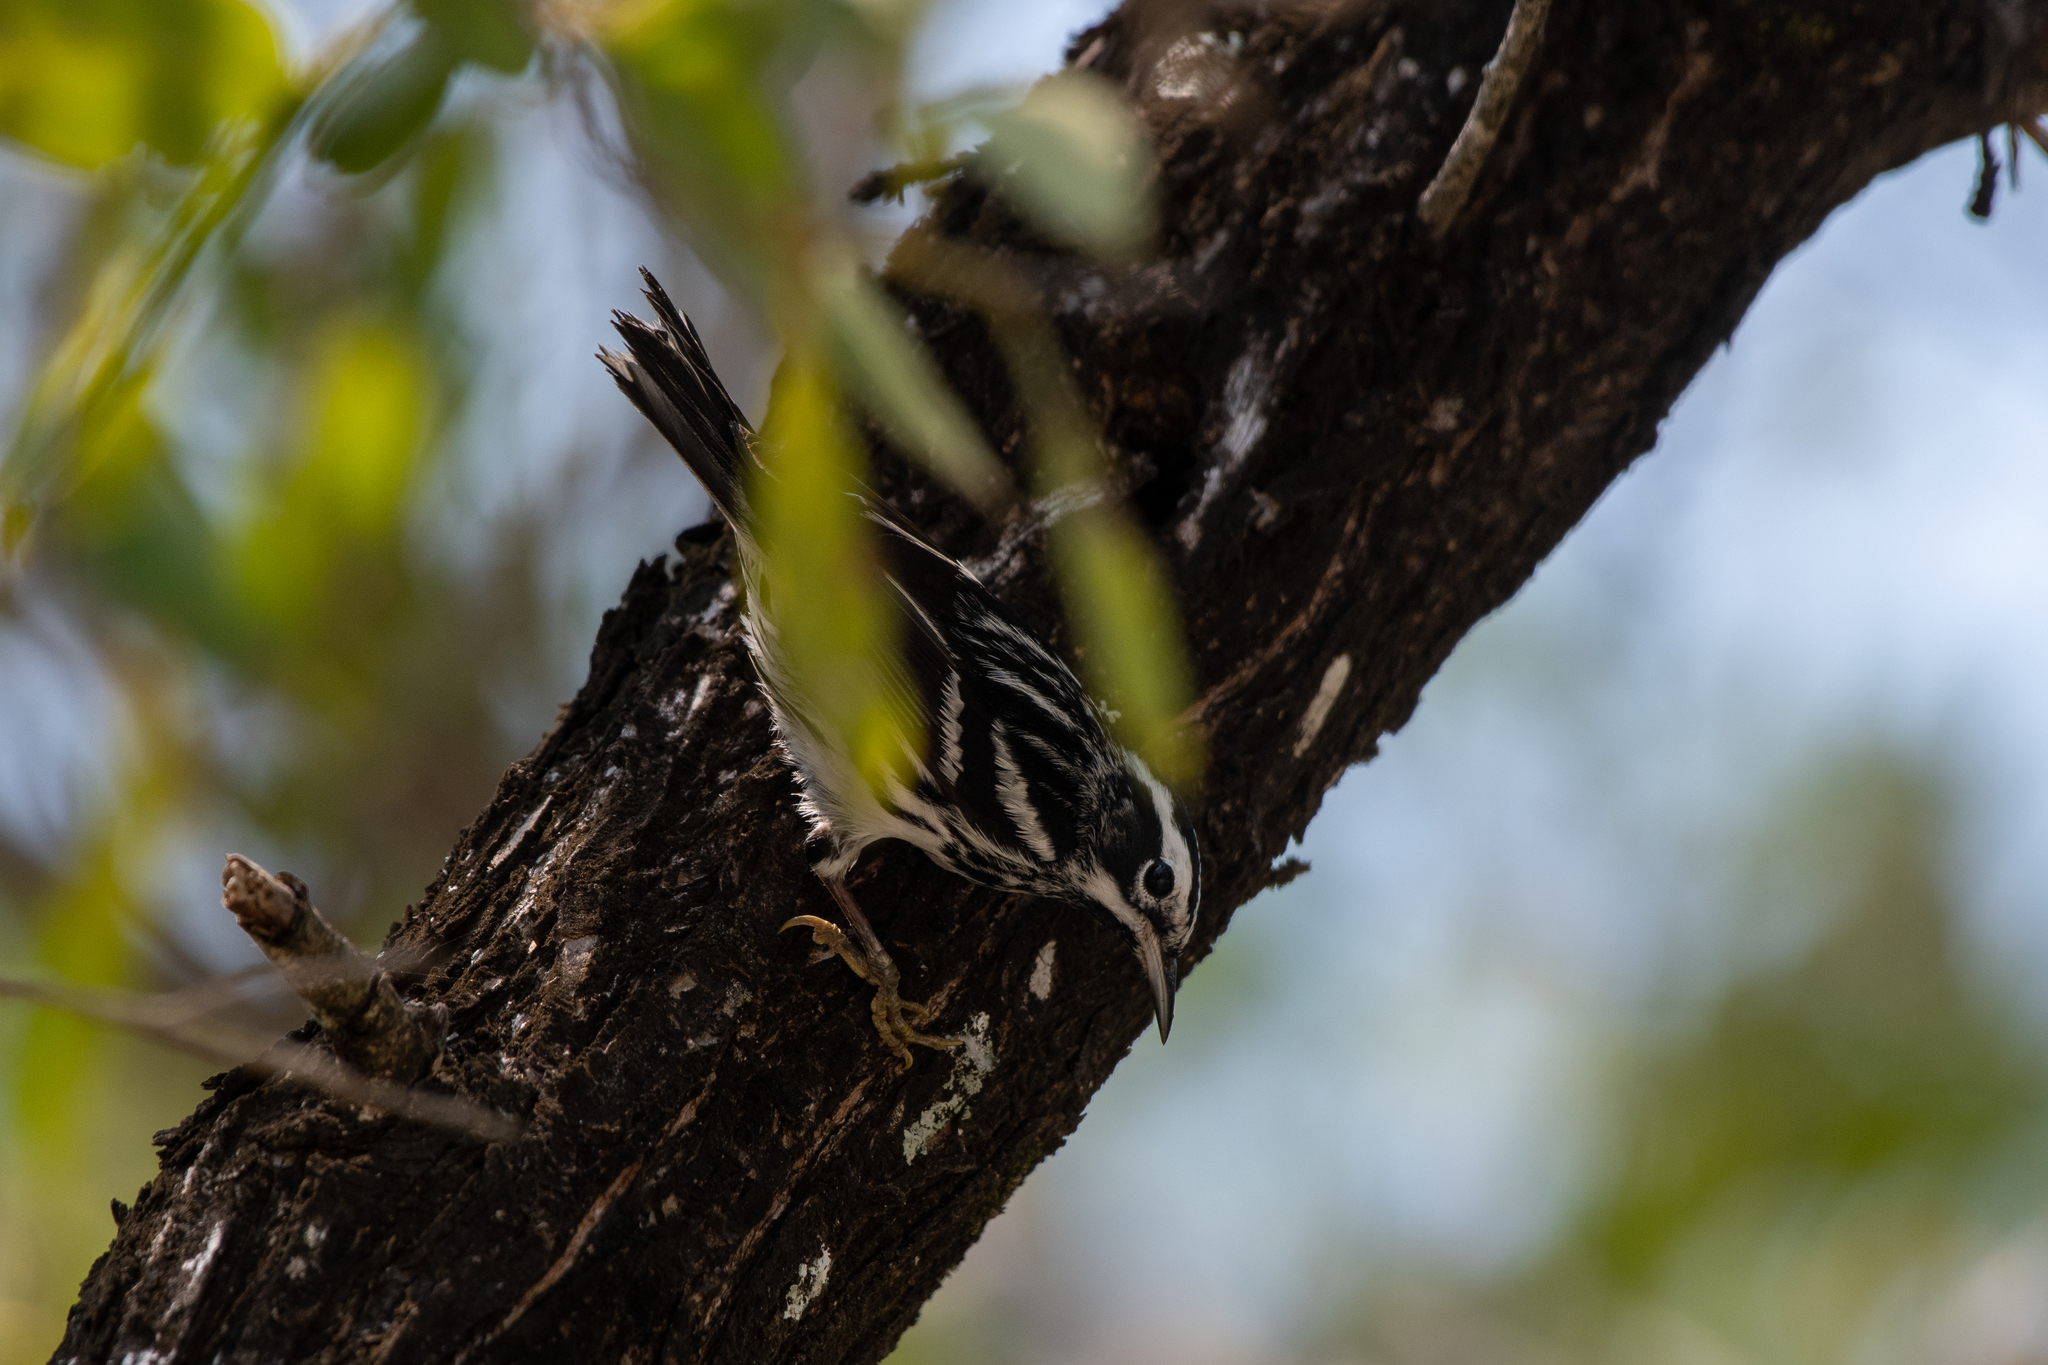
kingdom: Animalia
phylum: Chordata
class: Aves
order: Passeriformes
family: Parulidae
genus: Mniotilta
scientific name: Mniotilta varia
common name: Black-and-white warbler
